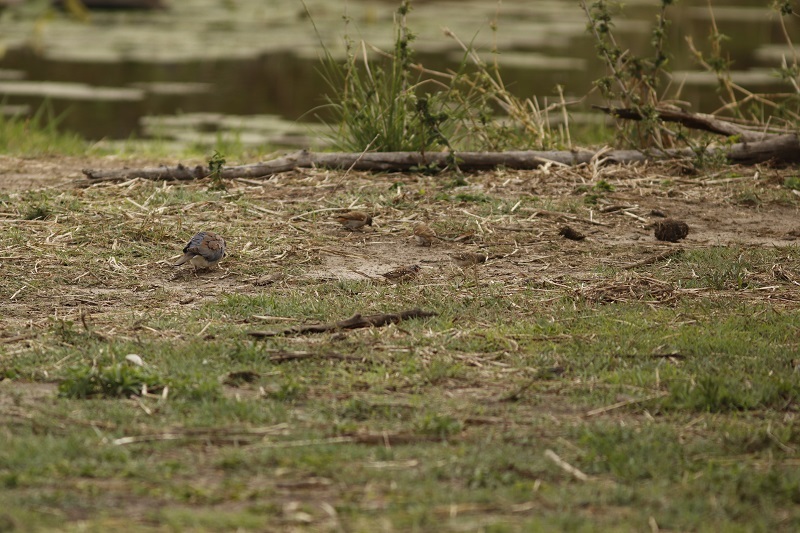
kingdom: Animalia
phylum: Chordata
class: Aves
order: Passeriformes
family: Estrildidae
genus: Amadina
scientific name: Amadina fasciata
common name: Cut-throat finch
